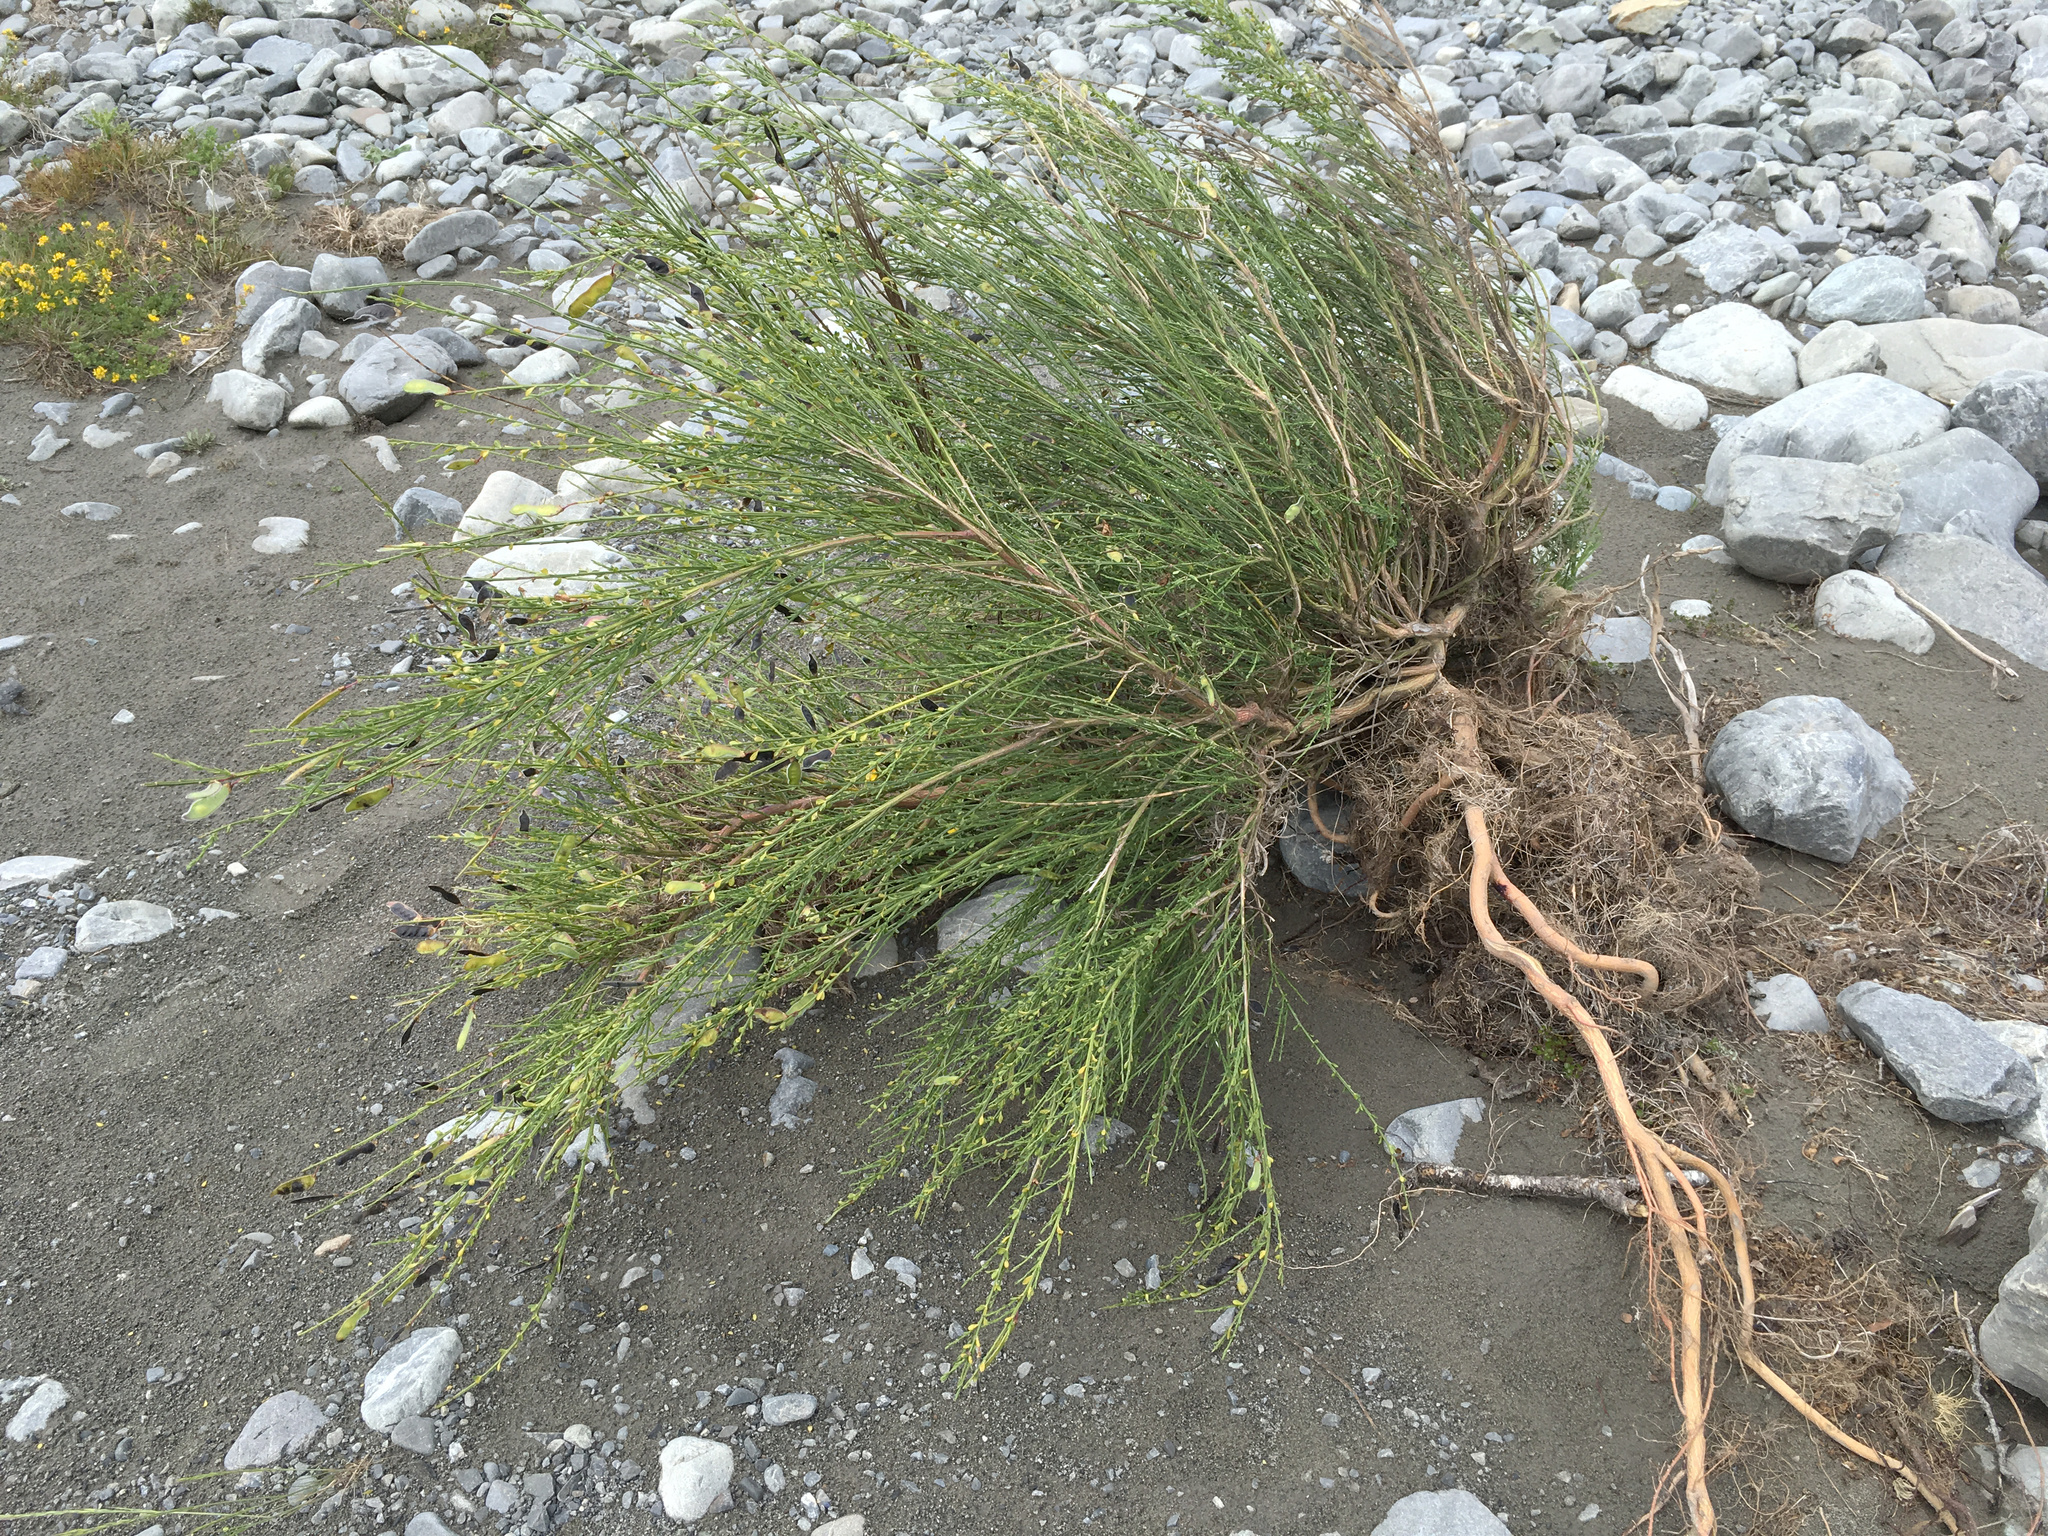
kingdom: Plantae
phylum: Tracheophyta
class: Magnoliopsida
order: Fabales
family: Fabaceae
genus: Cytisus
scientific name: Cytisus scoparius
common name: Scotch broom
